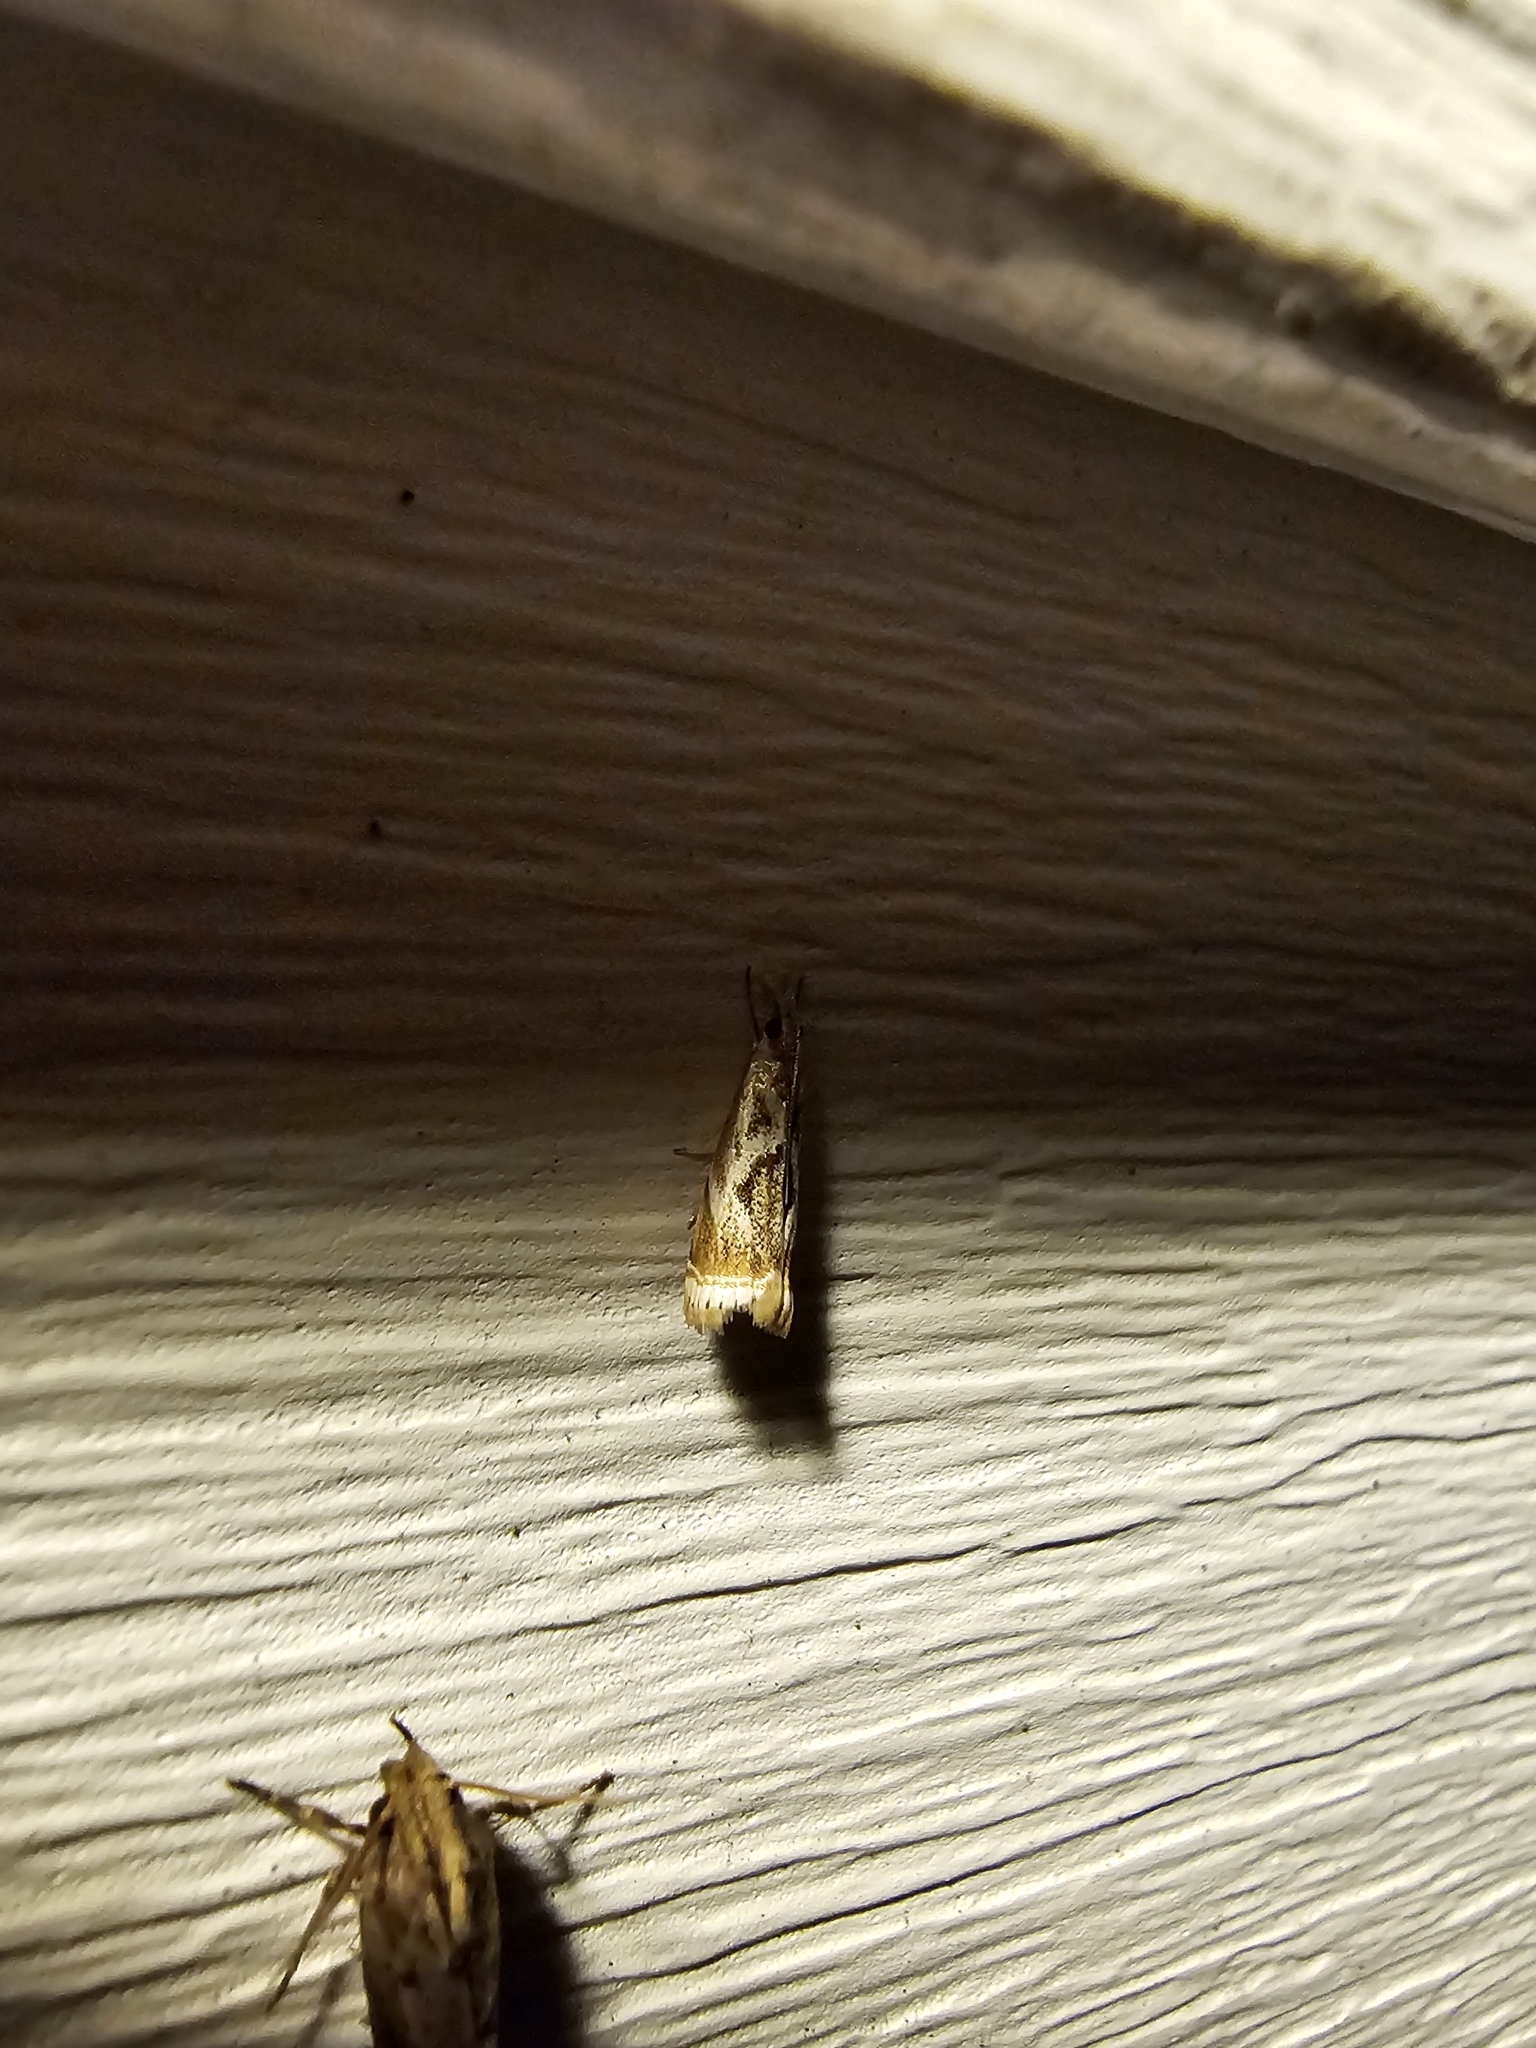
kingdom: Animalia
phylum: Arthropoda
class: Insecta
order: Lepidoptera
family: Crambidae
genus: Microcrambus
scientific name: Microcrambus elegans
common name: Elegant grass-veneer
